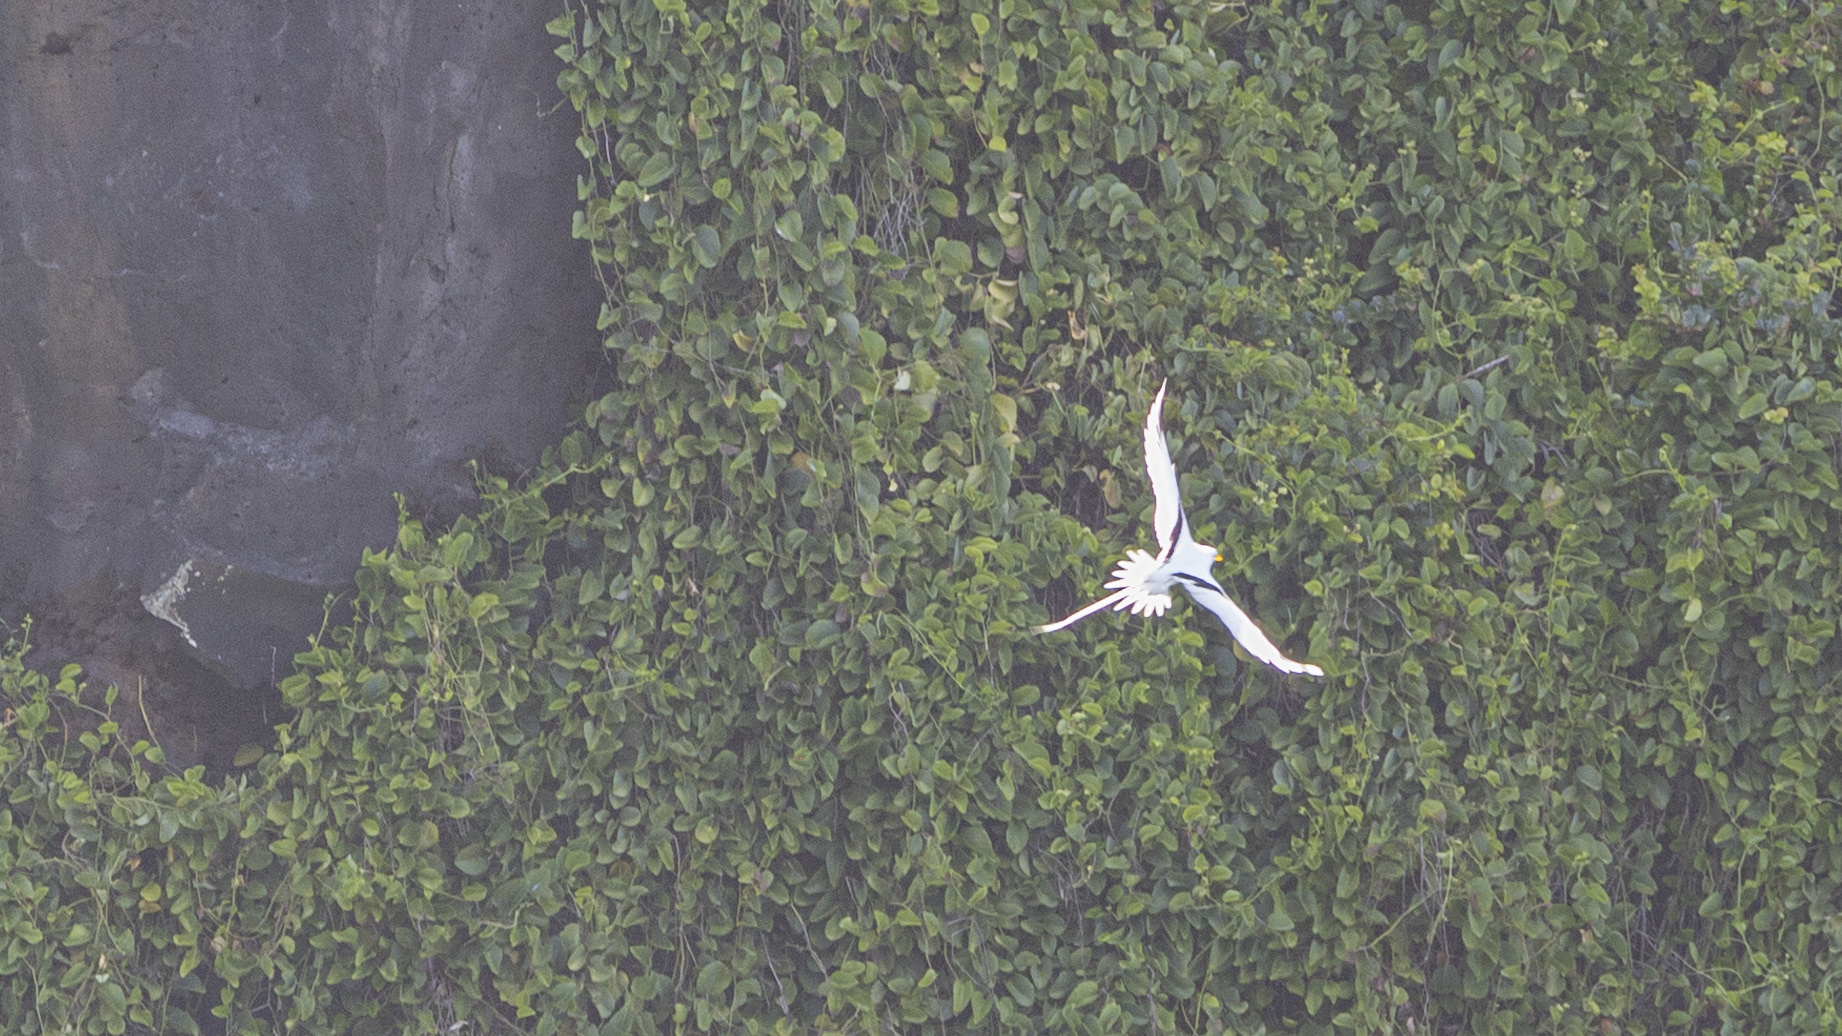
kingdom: Animalia
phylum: Chordata
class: Aves
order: Phaethontiformes
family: Phaethontidae
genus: Phaethon
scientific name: Phaethon lepturus
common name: White-tailed tropicbird
